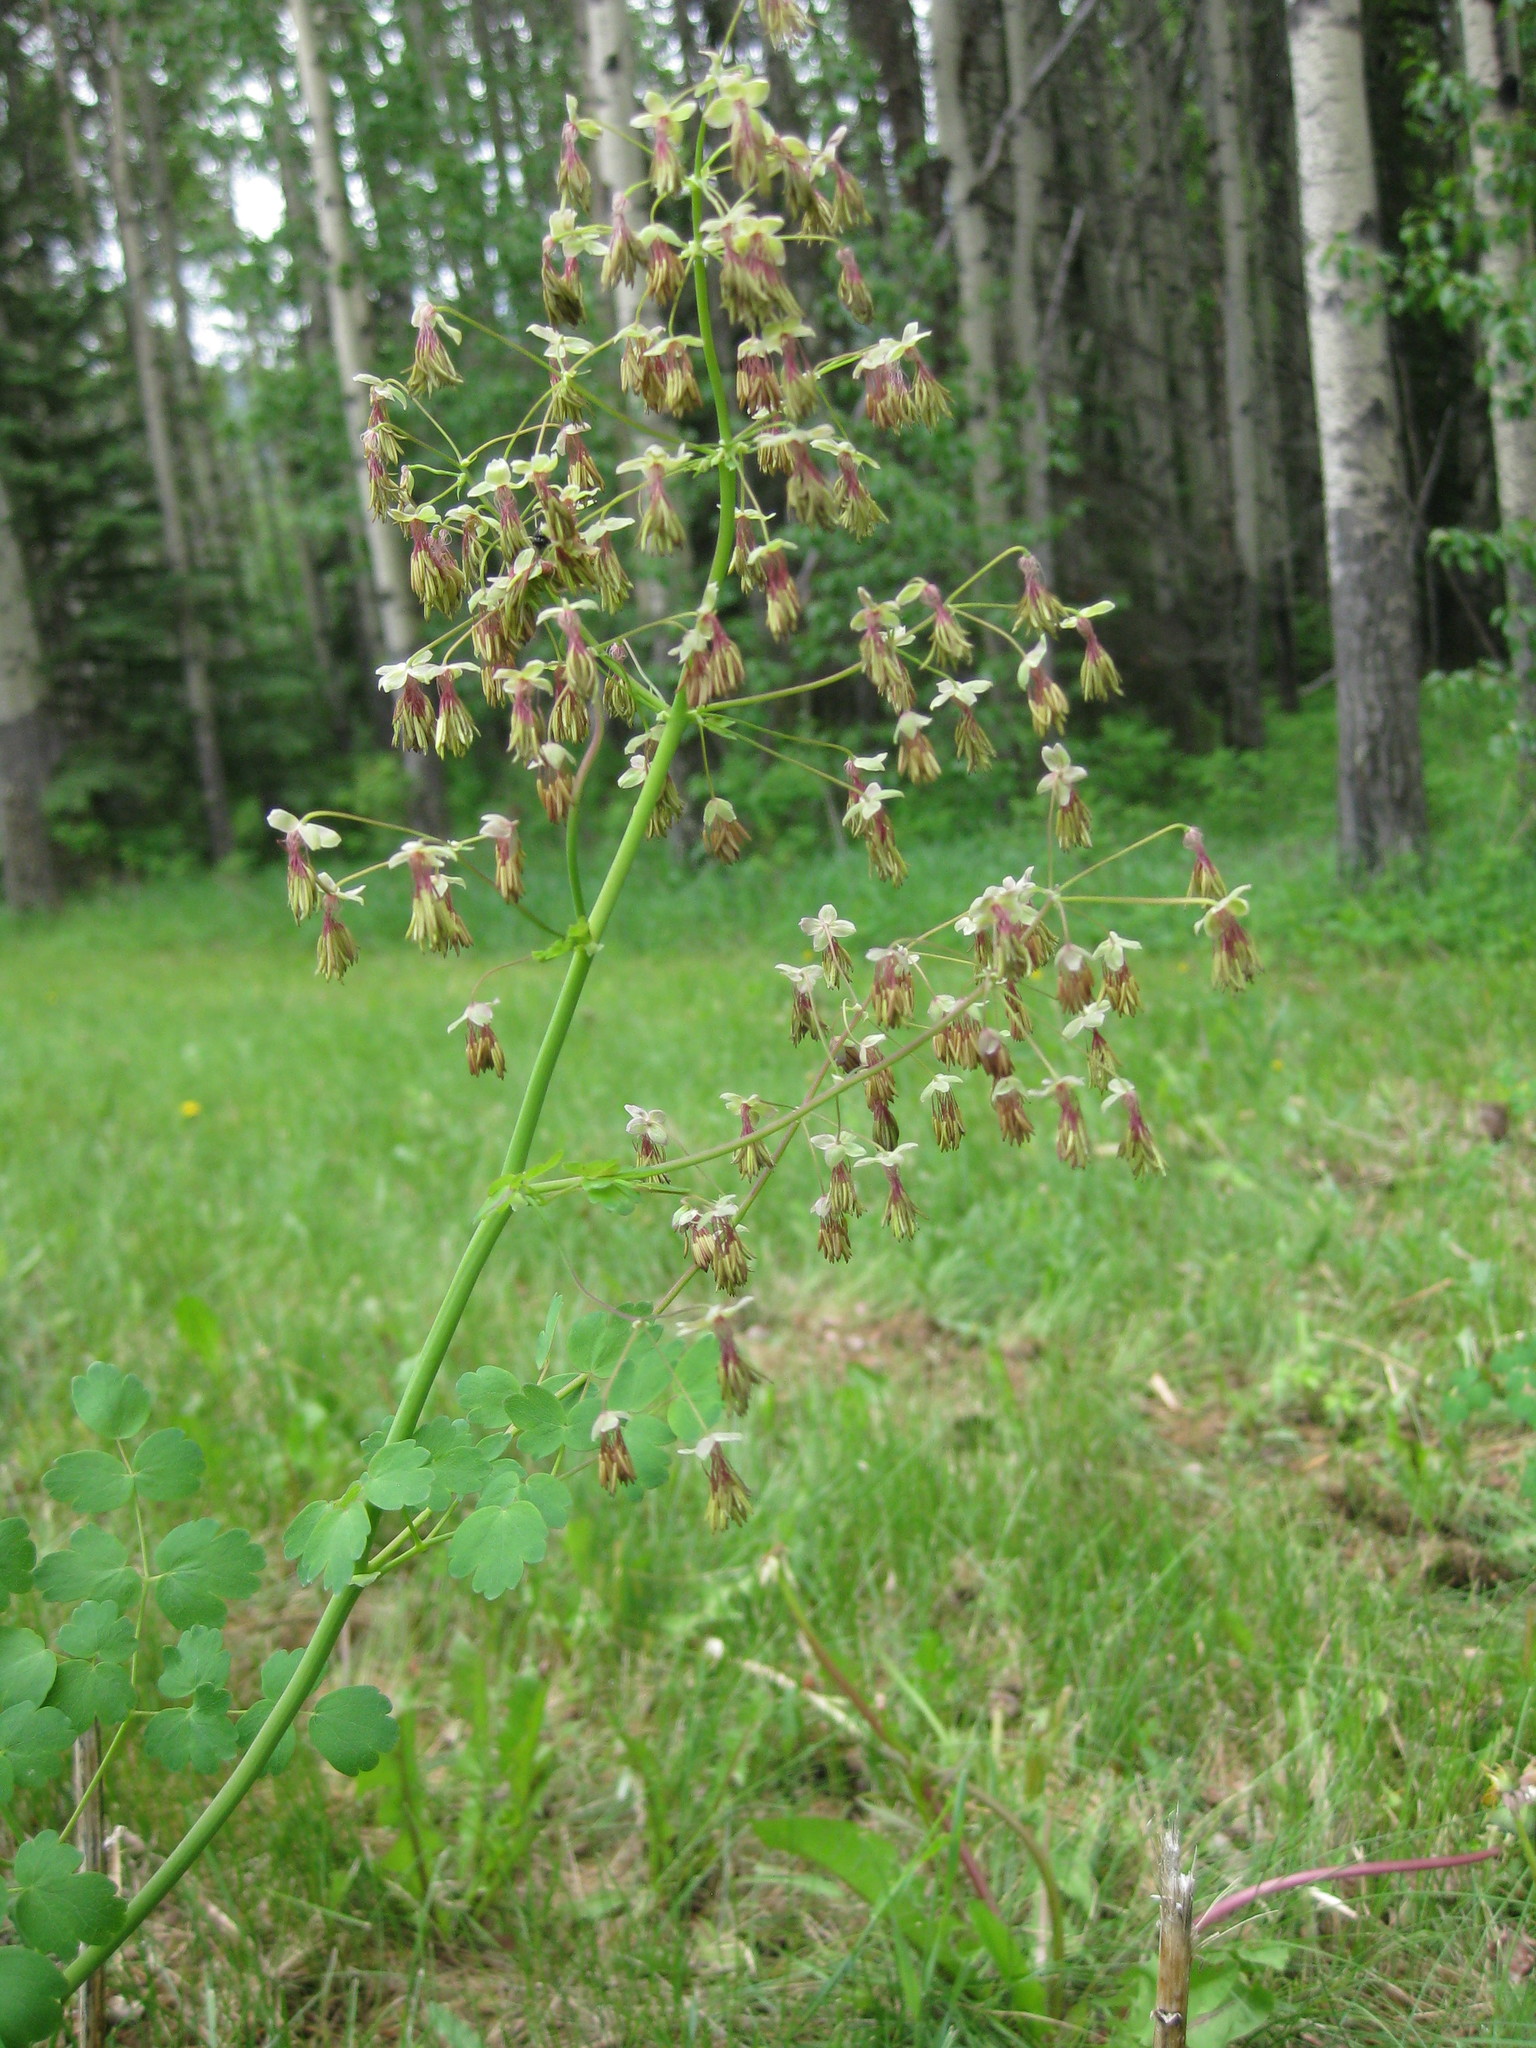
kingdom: Plantae
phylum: Tracheophyta
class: Magnoliopsida
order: Ranunculales
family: Ranunculaceae
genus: Thalictrum
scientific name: Thalictrum occidentale
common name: Western meadow-rue
